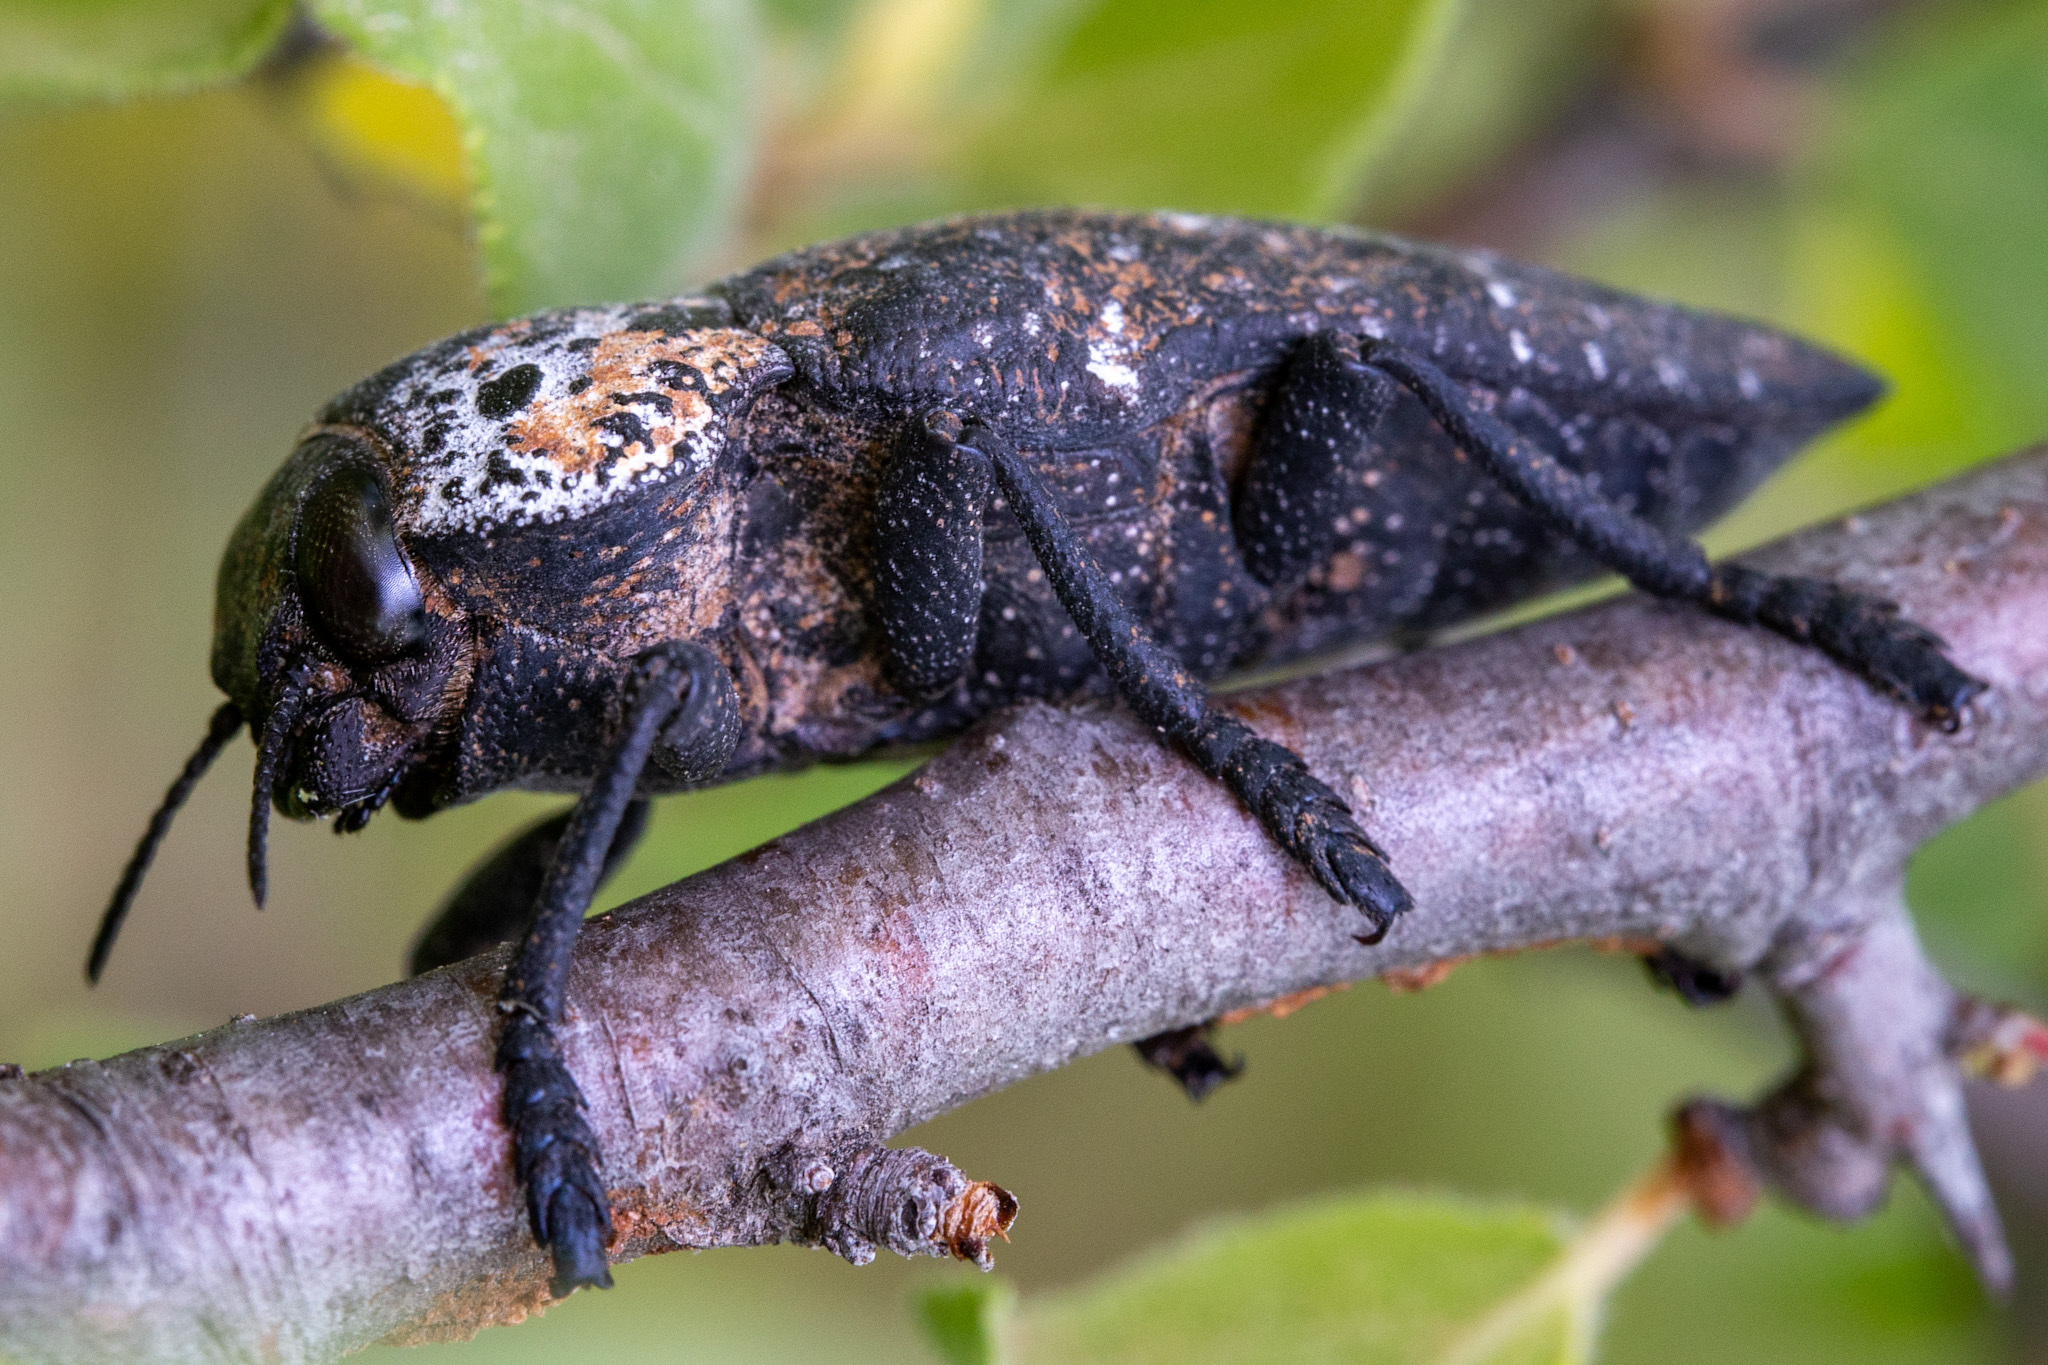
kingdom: Animalia
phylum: Arthropoda
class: Insecta
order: Coleoptera
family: Buprestidae
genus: Capnodis
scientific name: Capnodis tenebrionis
